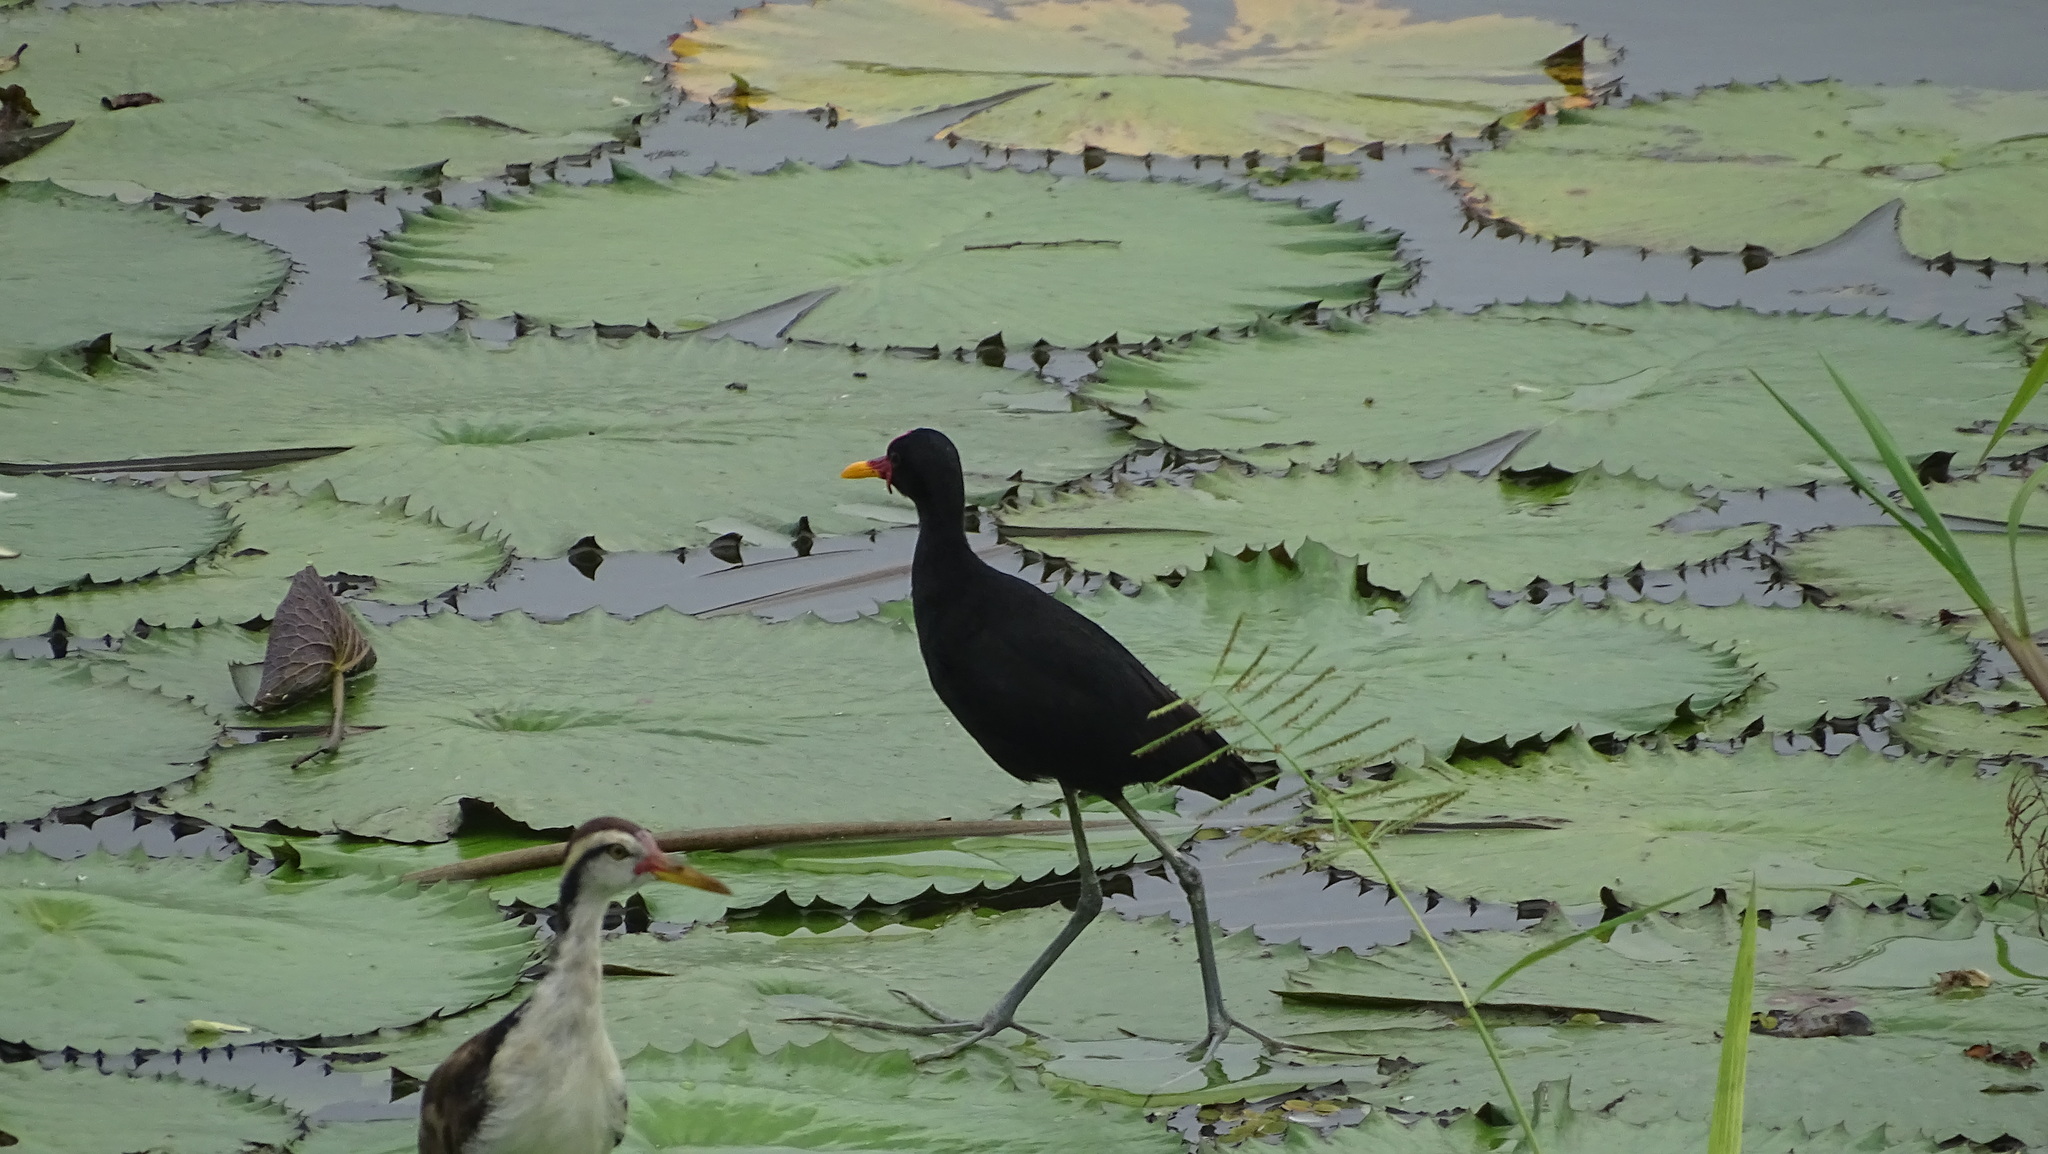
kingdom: Animalia
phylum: Chordata
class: Aves
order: Charadriiformes
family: Jacanidae
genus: Jacana
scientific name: Jacana jacana
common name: Wattled jacana
